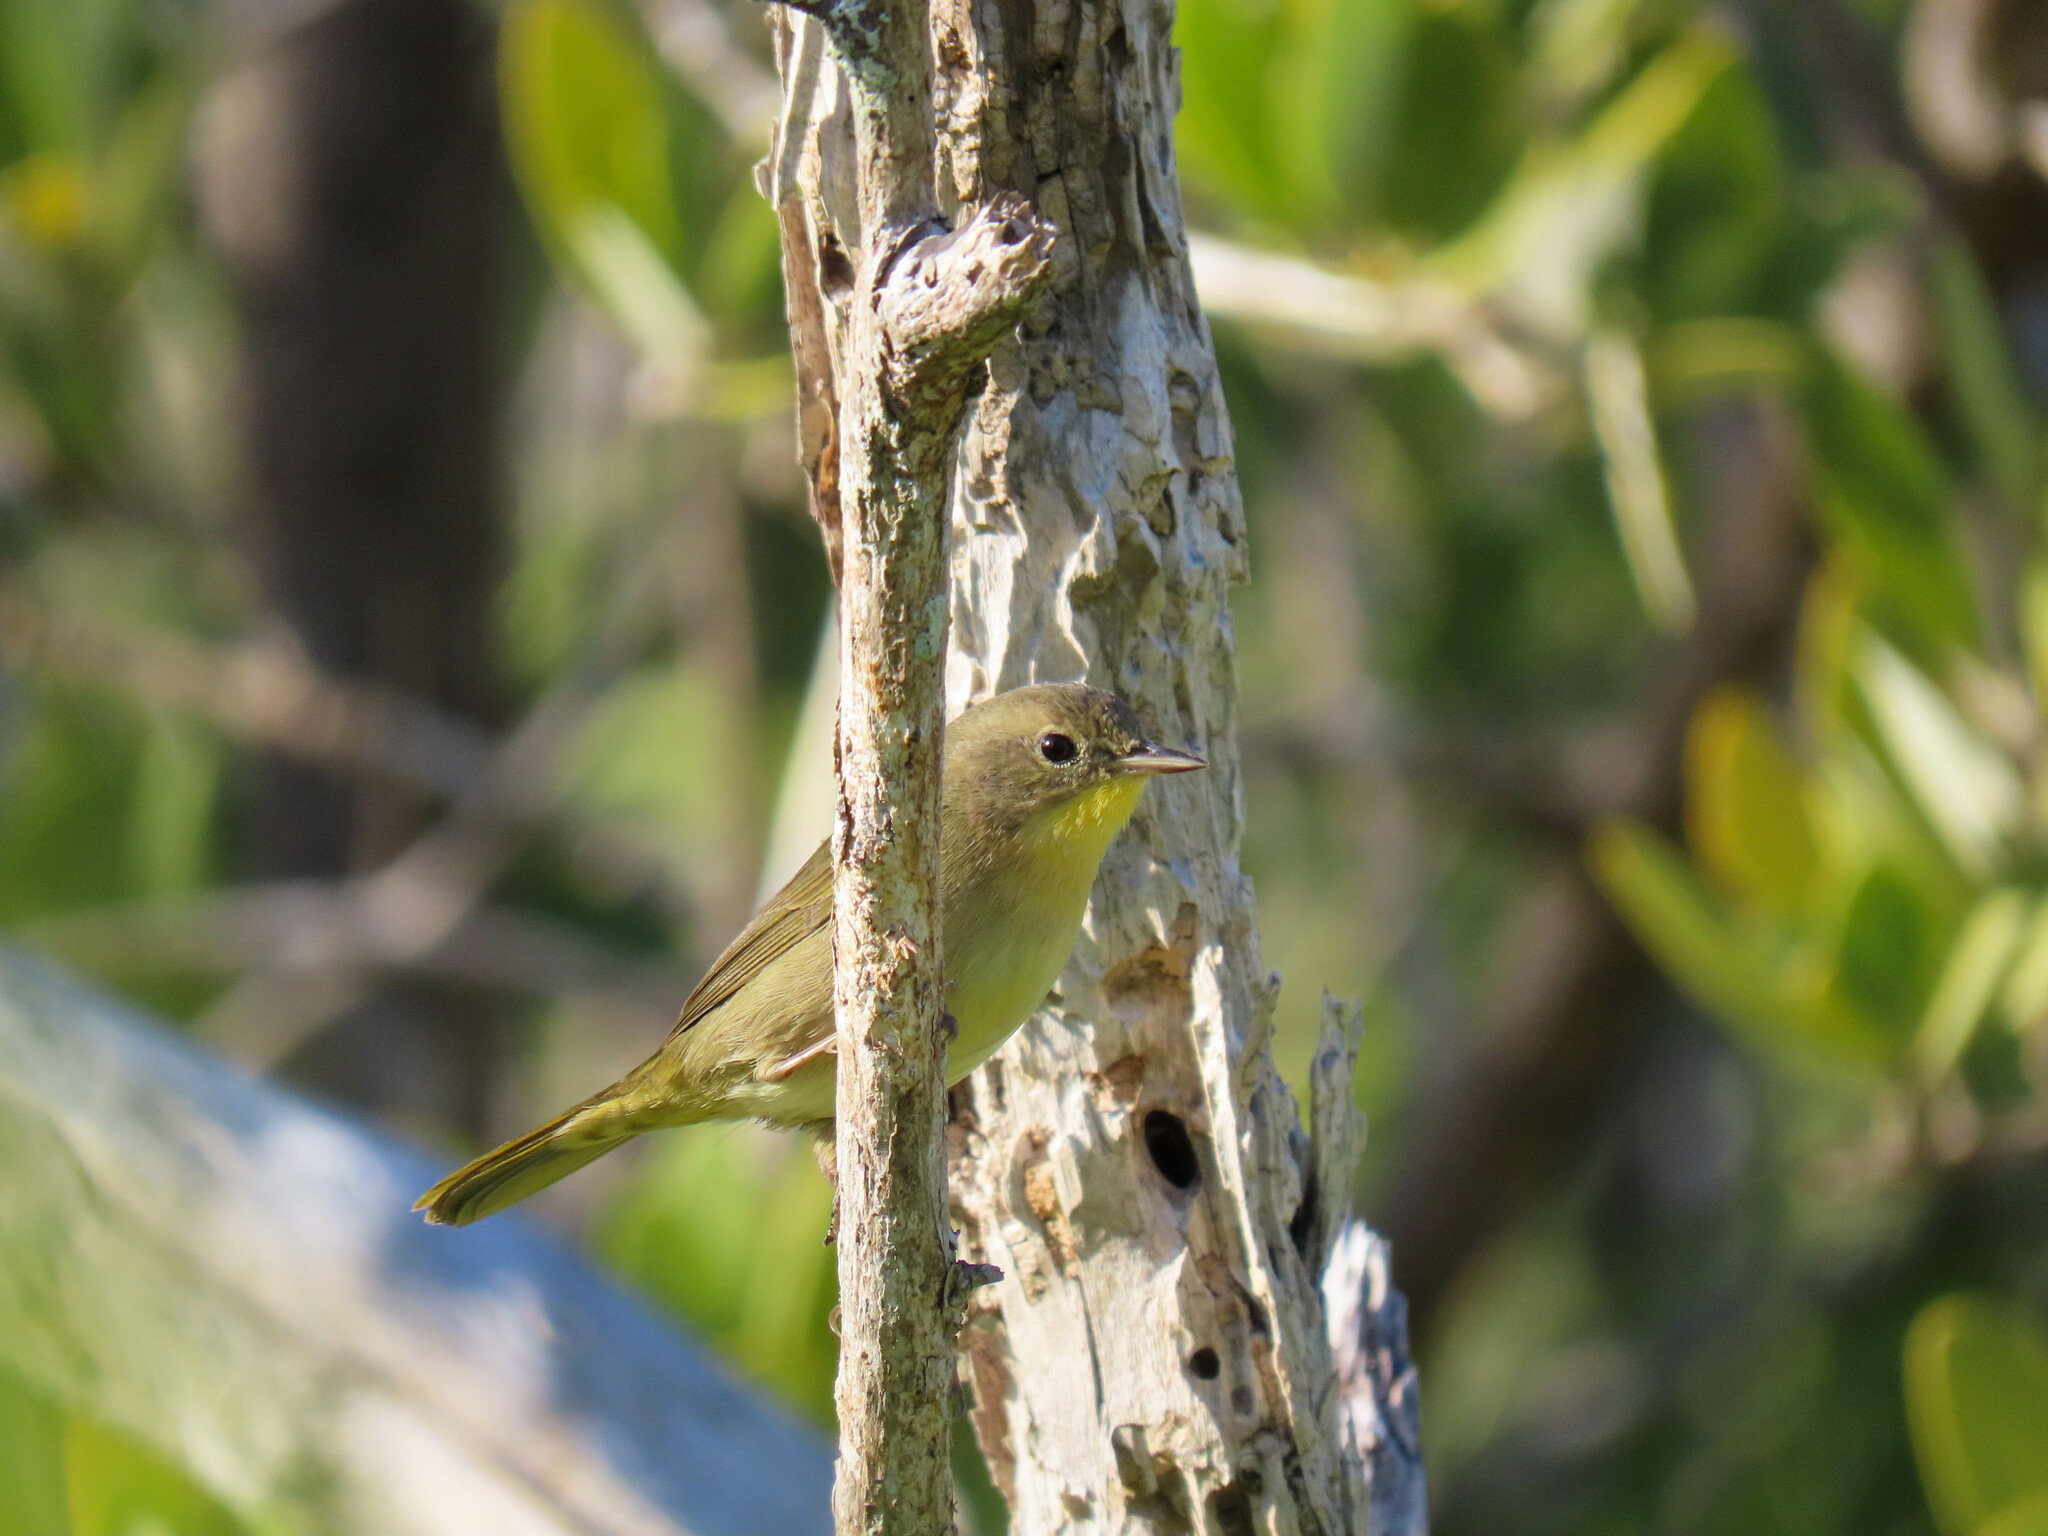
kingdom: Animalia
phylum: Chordata
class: Aves
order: Passeriformes
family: Parulidae
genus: Geothlypis
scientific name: Geothlypis trichas
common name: Common yellowthroat
